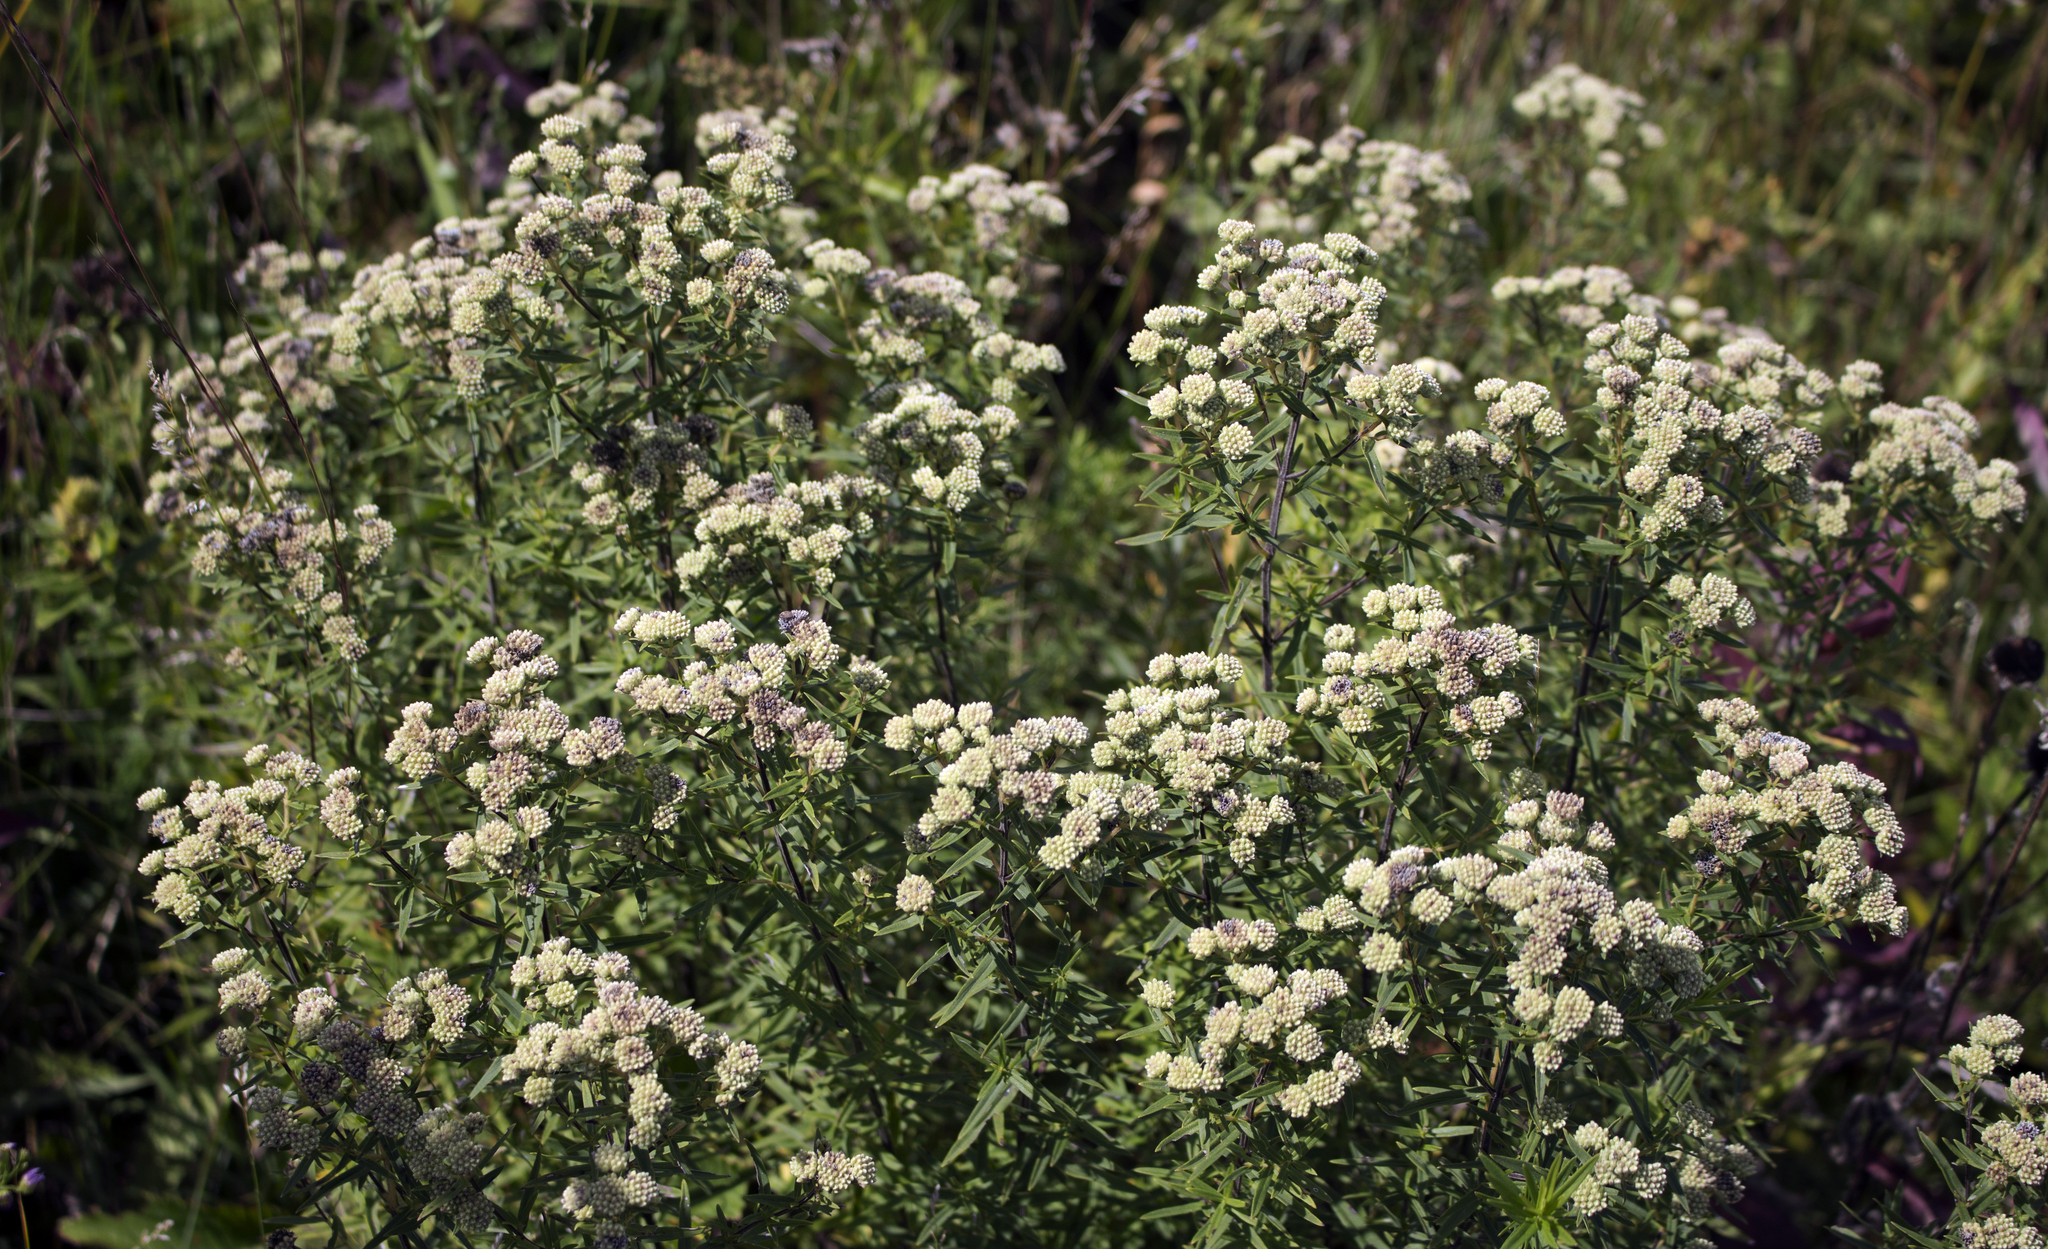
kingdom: Plantae
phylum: Tracheophyta
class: Magnoliopsida
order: Lamiales
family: Lamiaceae
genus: Pycnanthemum
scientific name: Pycnanthemum virginianum
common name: Virginia mountain-mint
